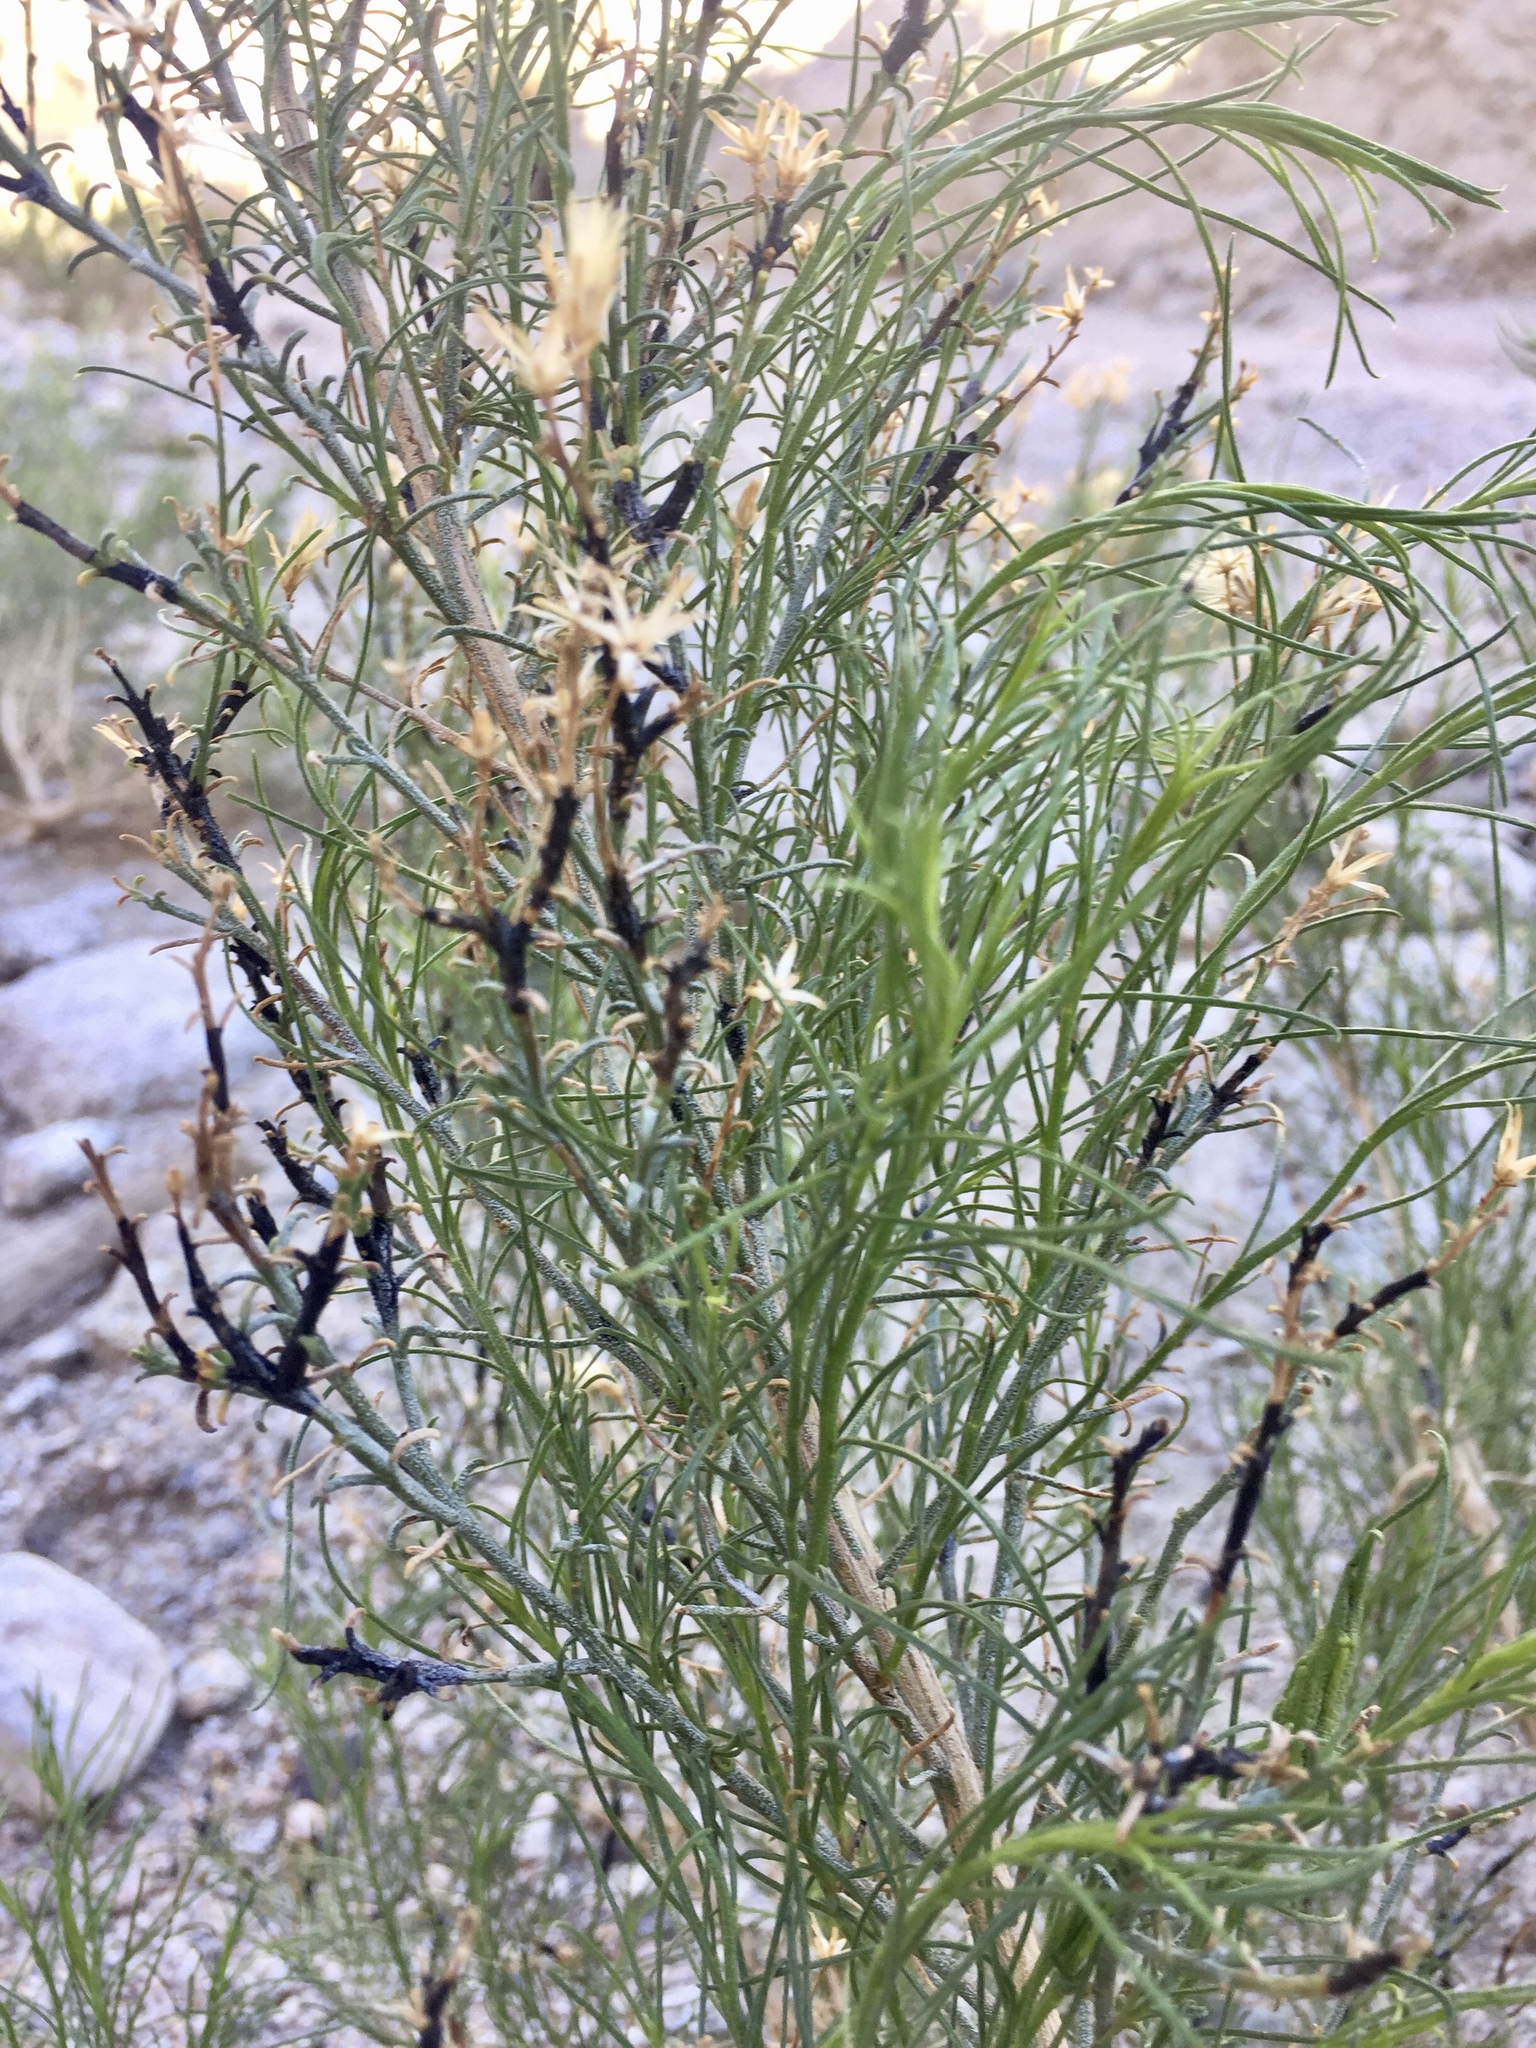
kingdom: Plantae
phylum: Tracheophyta
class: Magnoliopsida
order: Asterales
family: Asteraceae
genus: Ericameria
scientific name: Ericameria paniculata
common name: Punctate rabbitbrush
